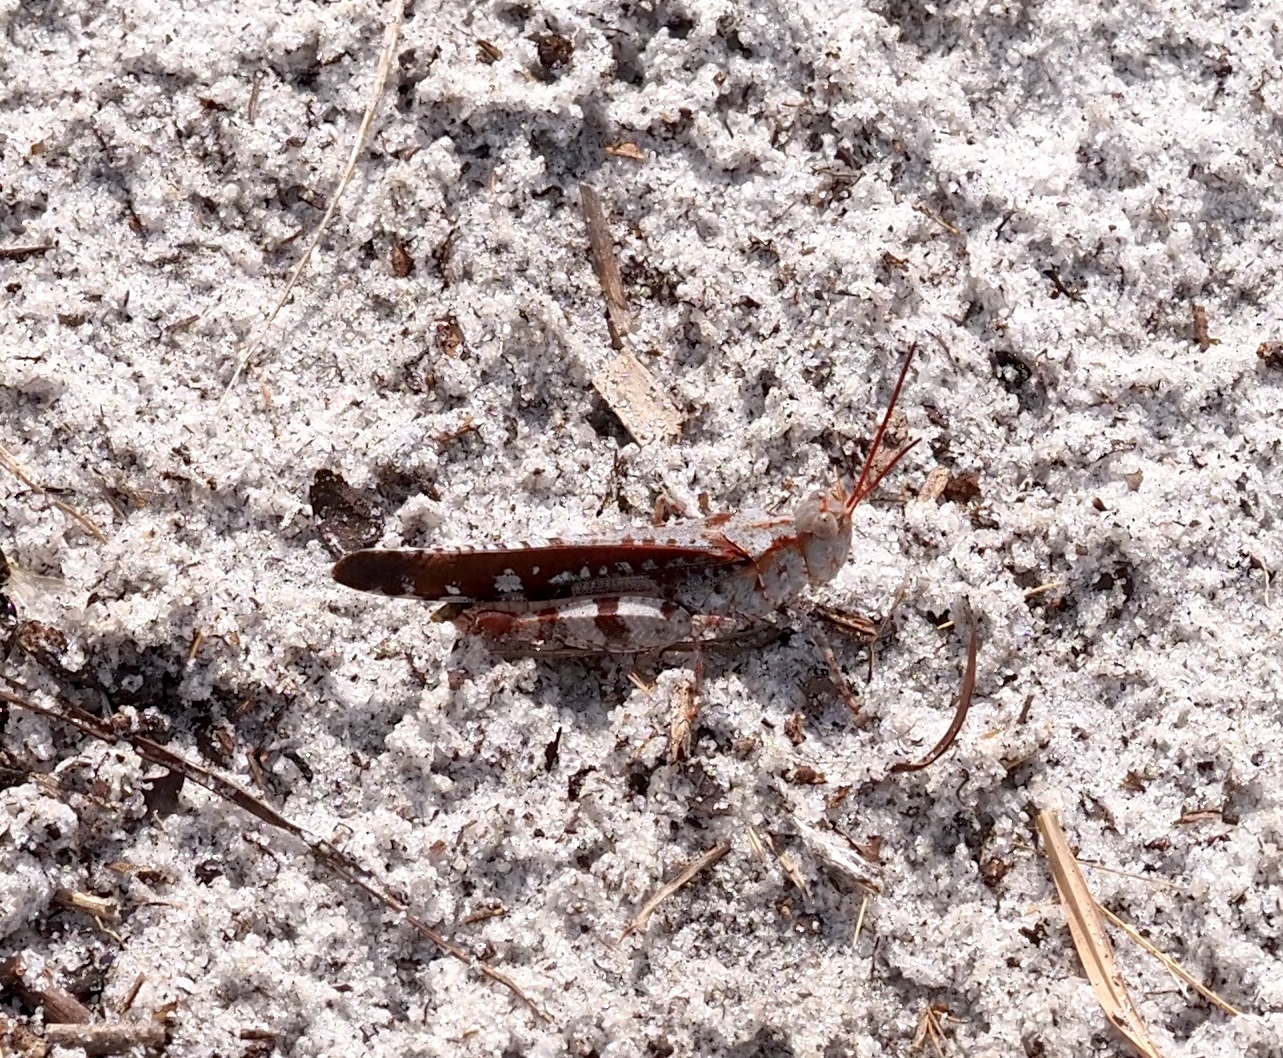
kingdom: Animalia
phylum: Arthropoda
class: Insecta
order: Orthoptera
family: Acrididae
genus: Spharagemon
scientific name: Spharagemon marmoratum
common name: Marbled grasshopper
